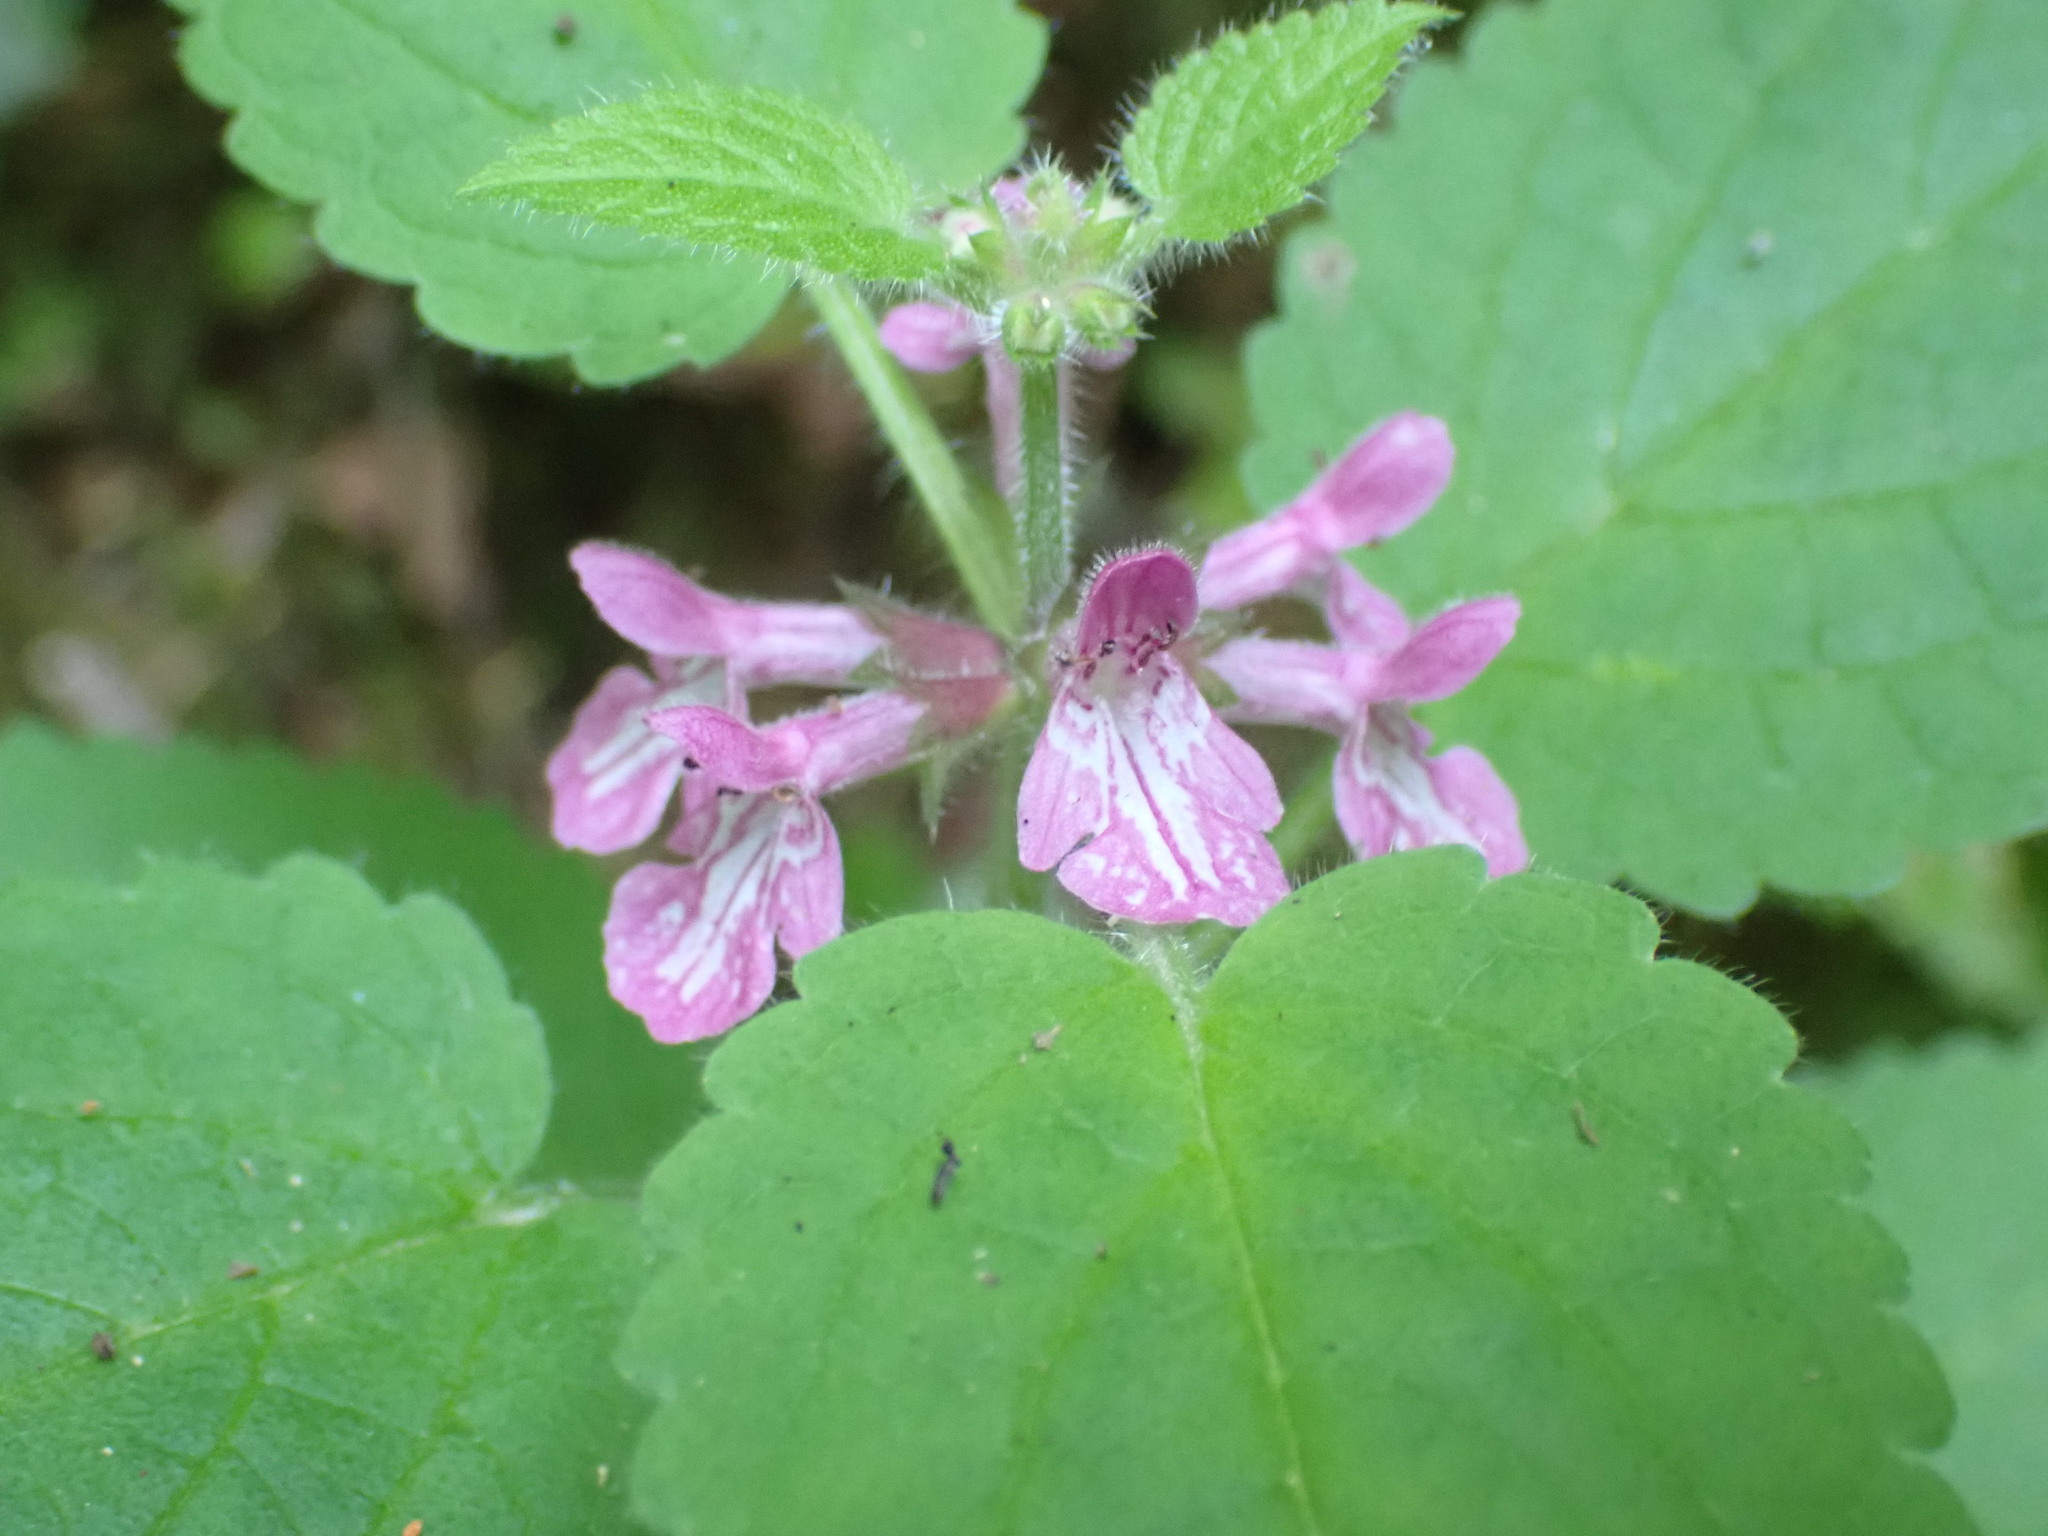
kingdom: Plantae
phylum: Tracheophyta
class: Magnoliopsida
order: Lamiales
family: Lamiaceae
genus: Stachys
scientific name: Stachys mexicana
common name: Mexican hedge-nettle
